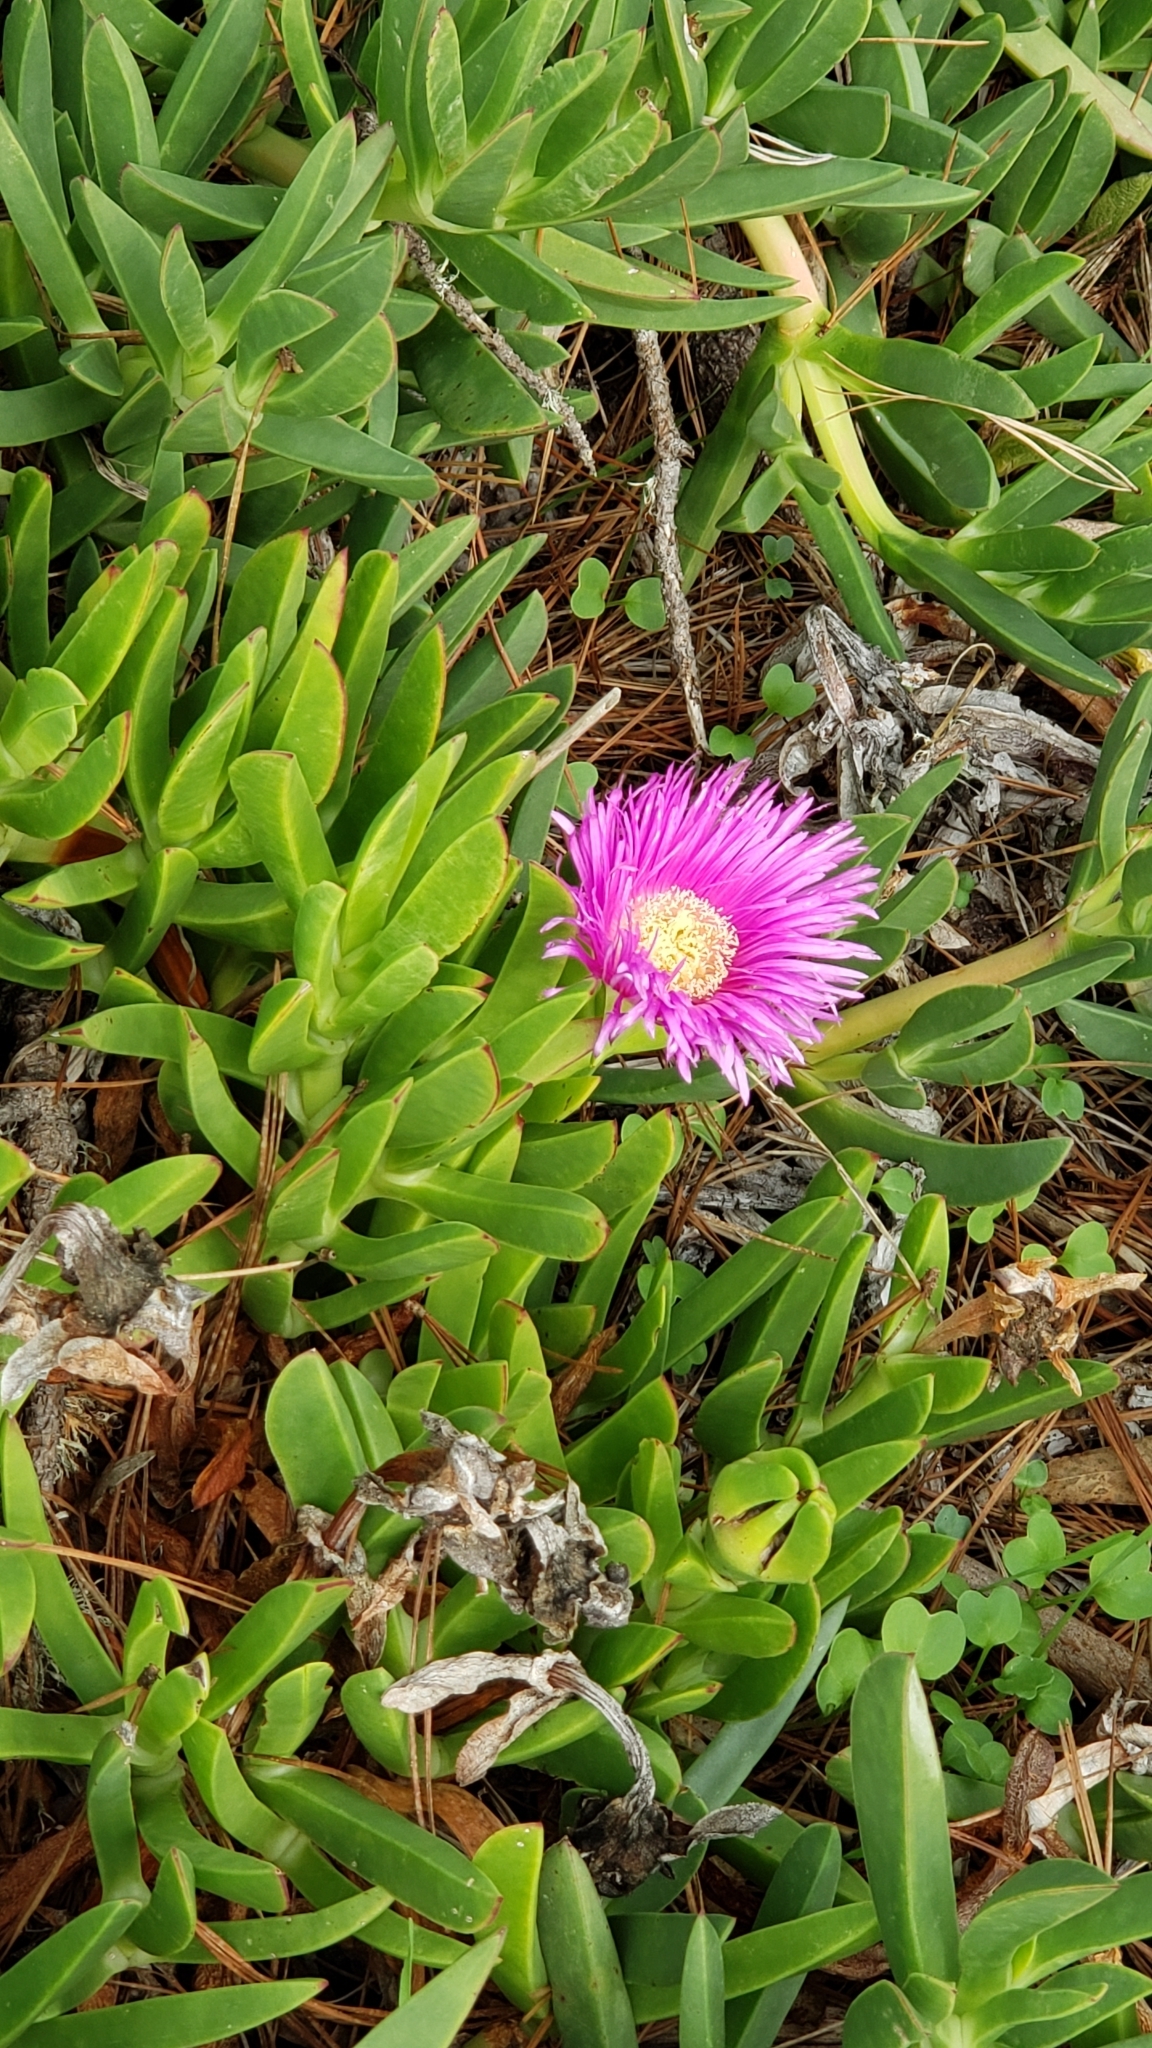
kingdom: Plantae
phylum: Tracheophyta
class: Magnoliopsida
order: Caryophyllales
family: Aizoaceae
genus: Carpobrotus
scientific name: Carpobrotus chilensis
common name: Sea fig
